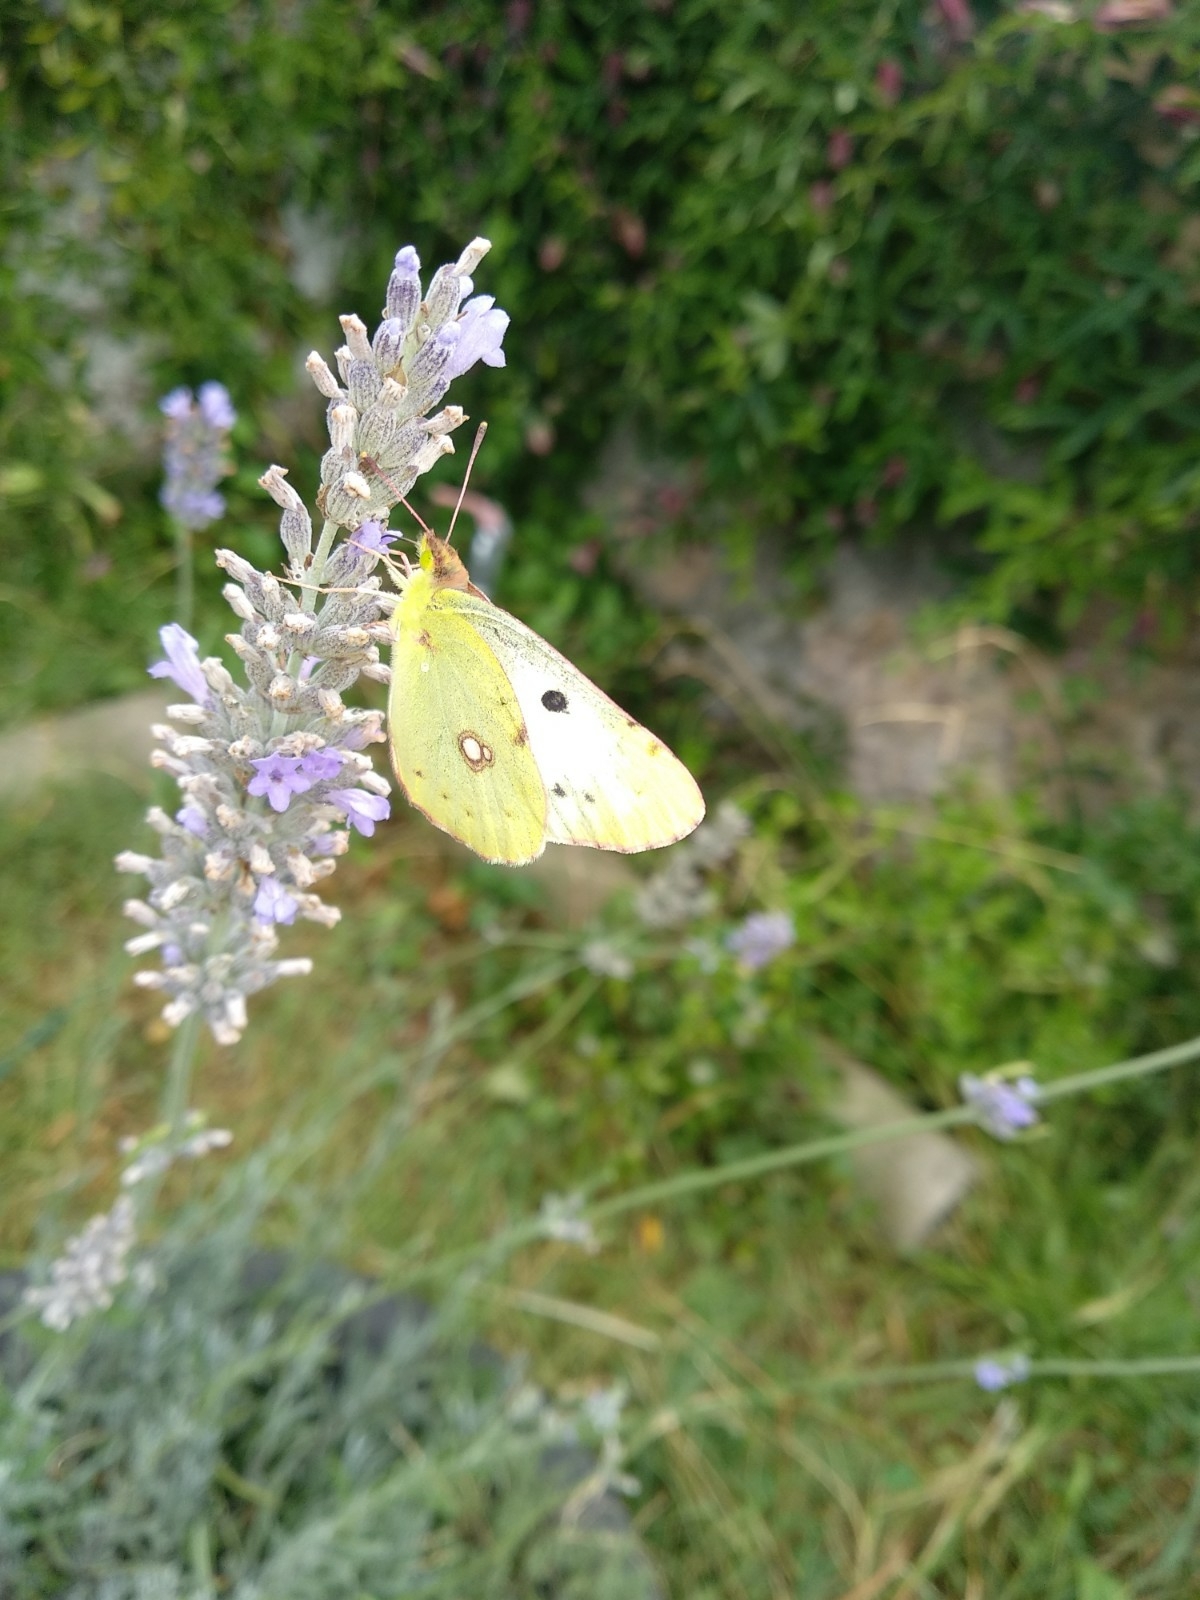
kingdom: Animalia
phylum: Arthropoda
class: Insecta
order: Lepidoptera
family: Pieridae
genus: Colias
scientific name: Colias alfacariensis
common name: Berger's clouded yellow
